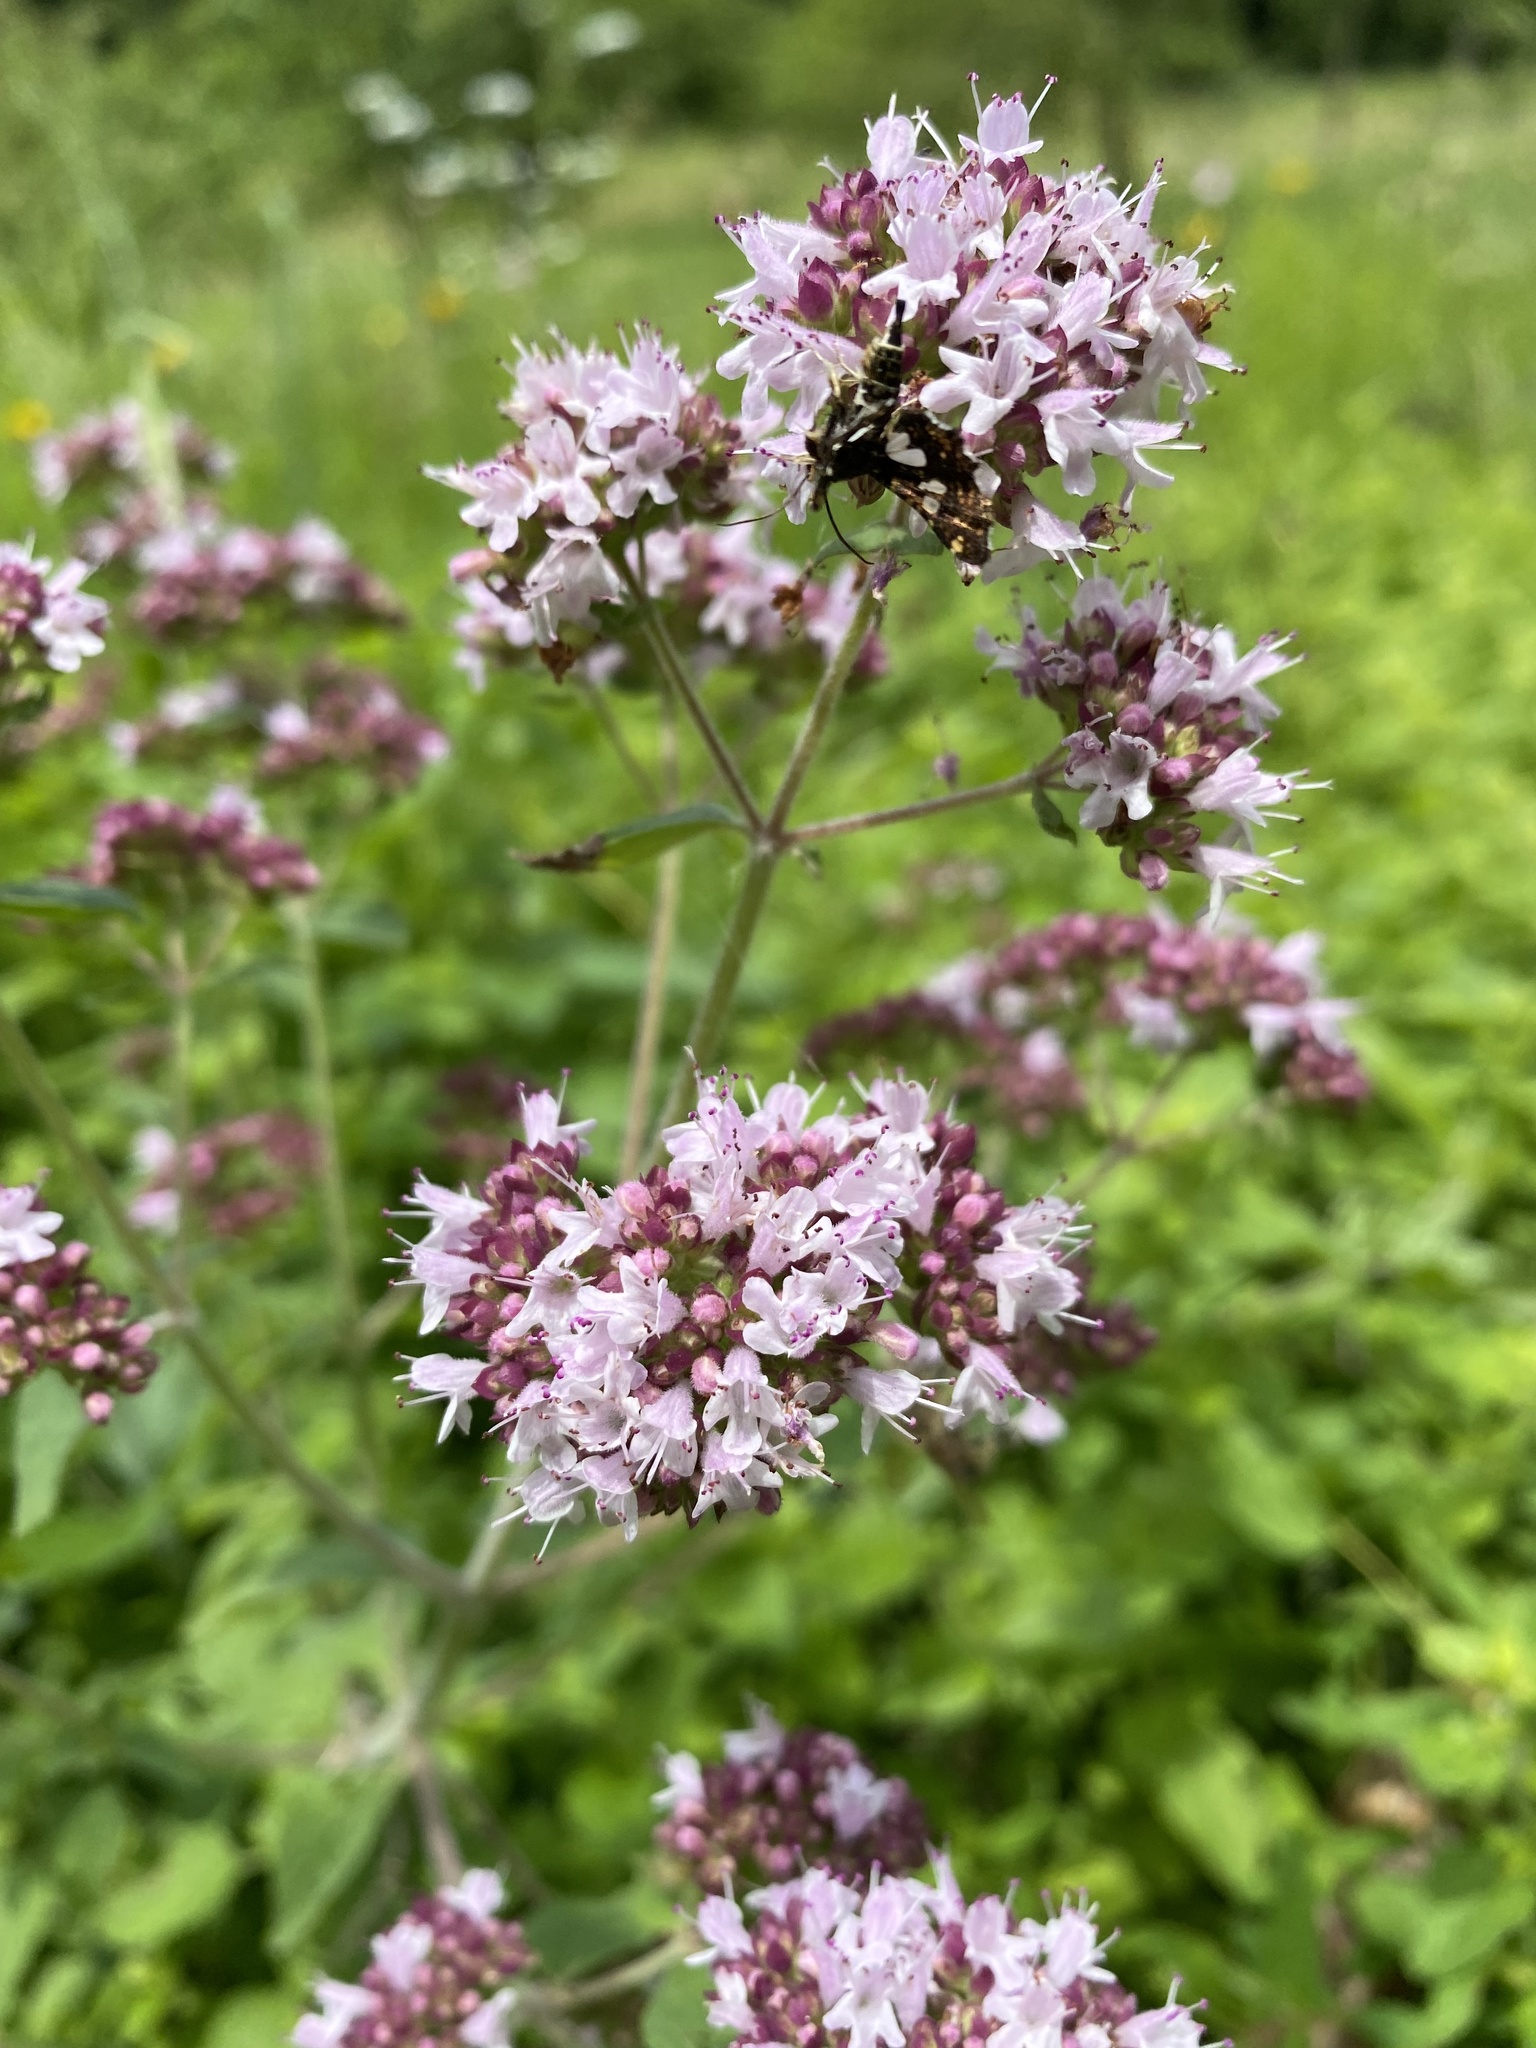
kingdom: Plantae
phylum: Tracheophyta
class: Magnoliopsida
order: Lamiales
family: Lamiaceae
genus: Origanum
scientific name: Origanum vulgare
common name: Wild marjoram
